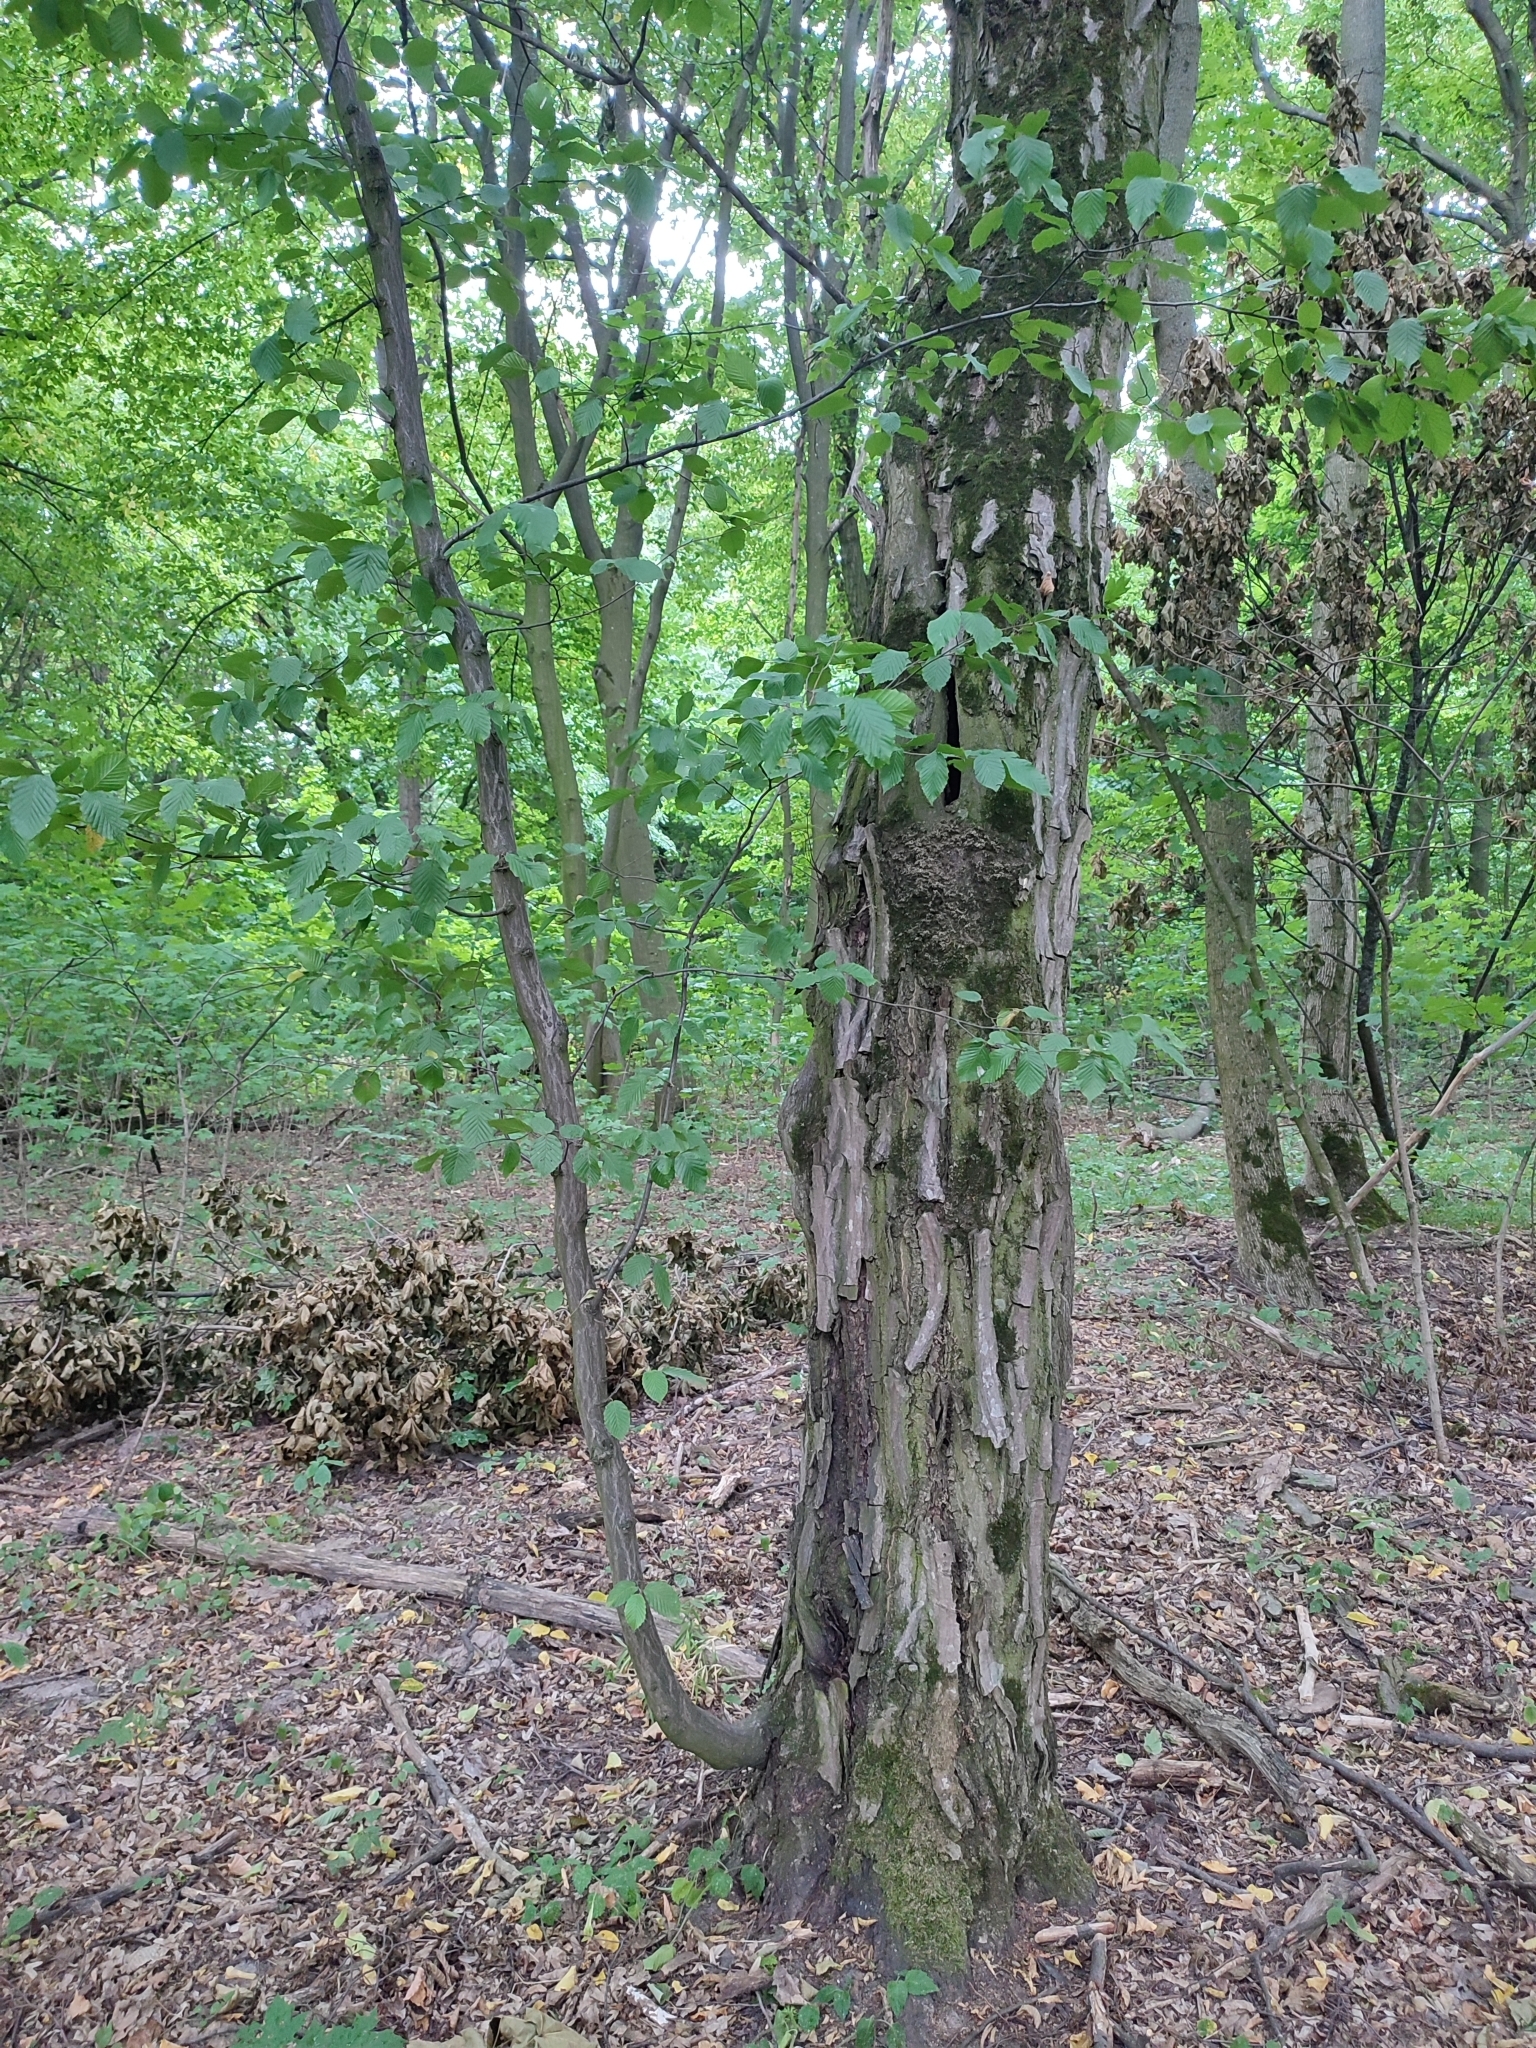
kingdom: Plantae
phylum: Tracheophyta
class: Magnoliopsida
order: Fagales
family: Betulaceae
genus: Carpinus
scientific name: Carpinus betulus
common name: Hornbeam
